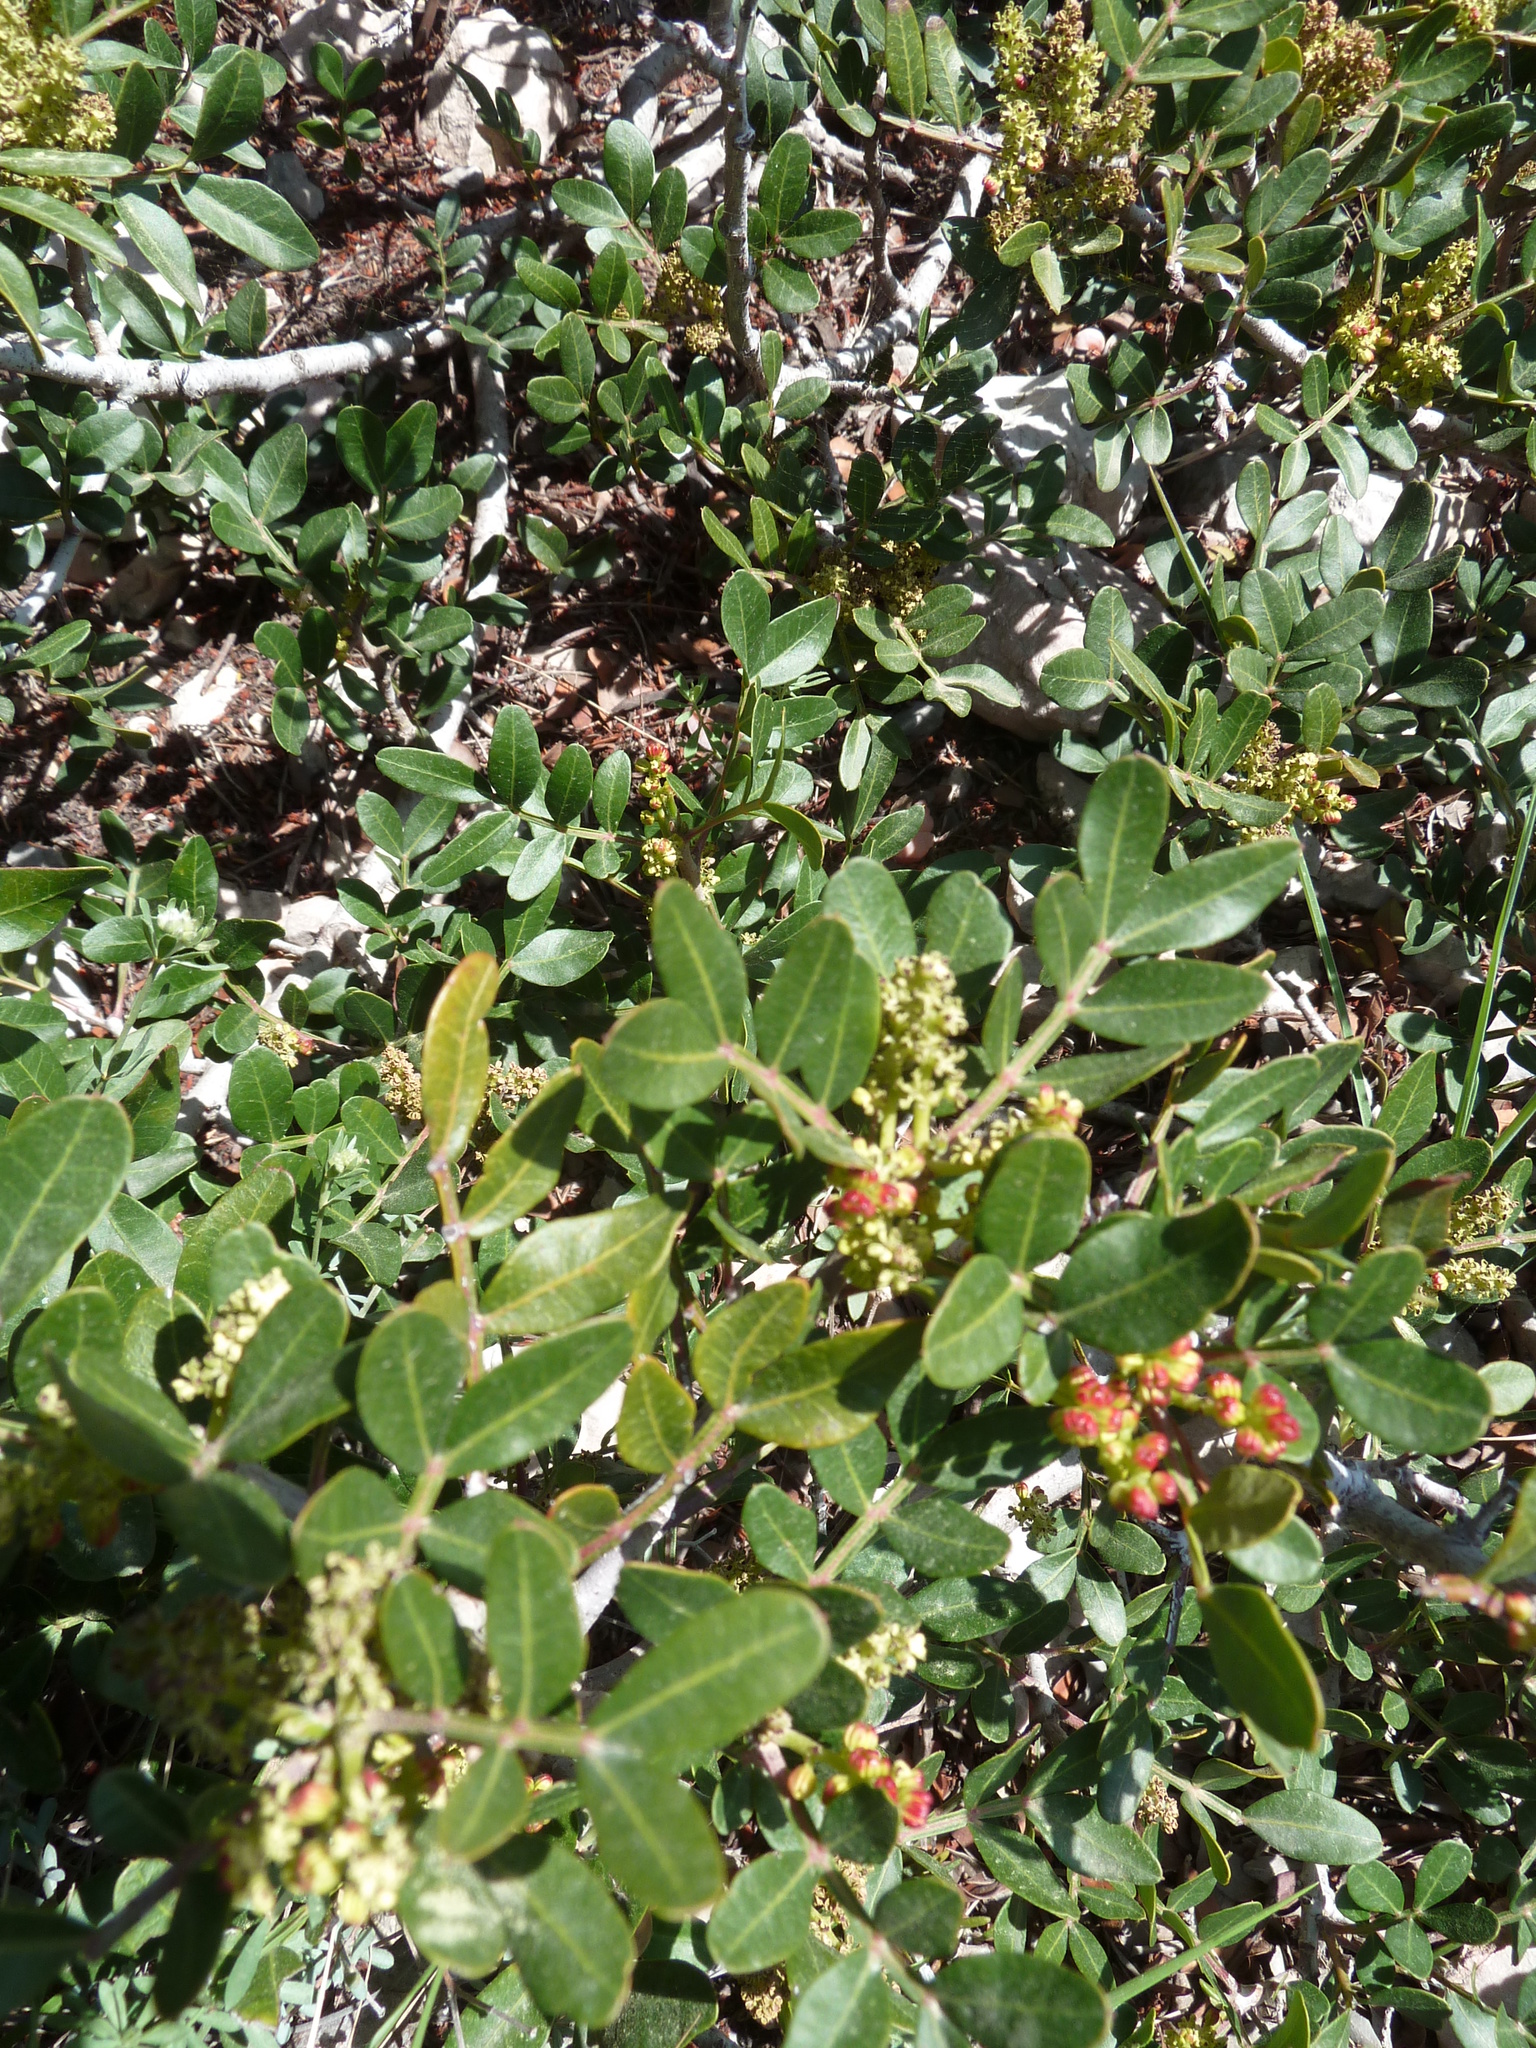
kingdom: Plantae
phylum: Tracheophyta
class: Magnoliopsida
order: Sapindales
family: Anacardiaceae
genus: Pistacia
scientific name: Pistacia lentiscus
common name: Lentisk
